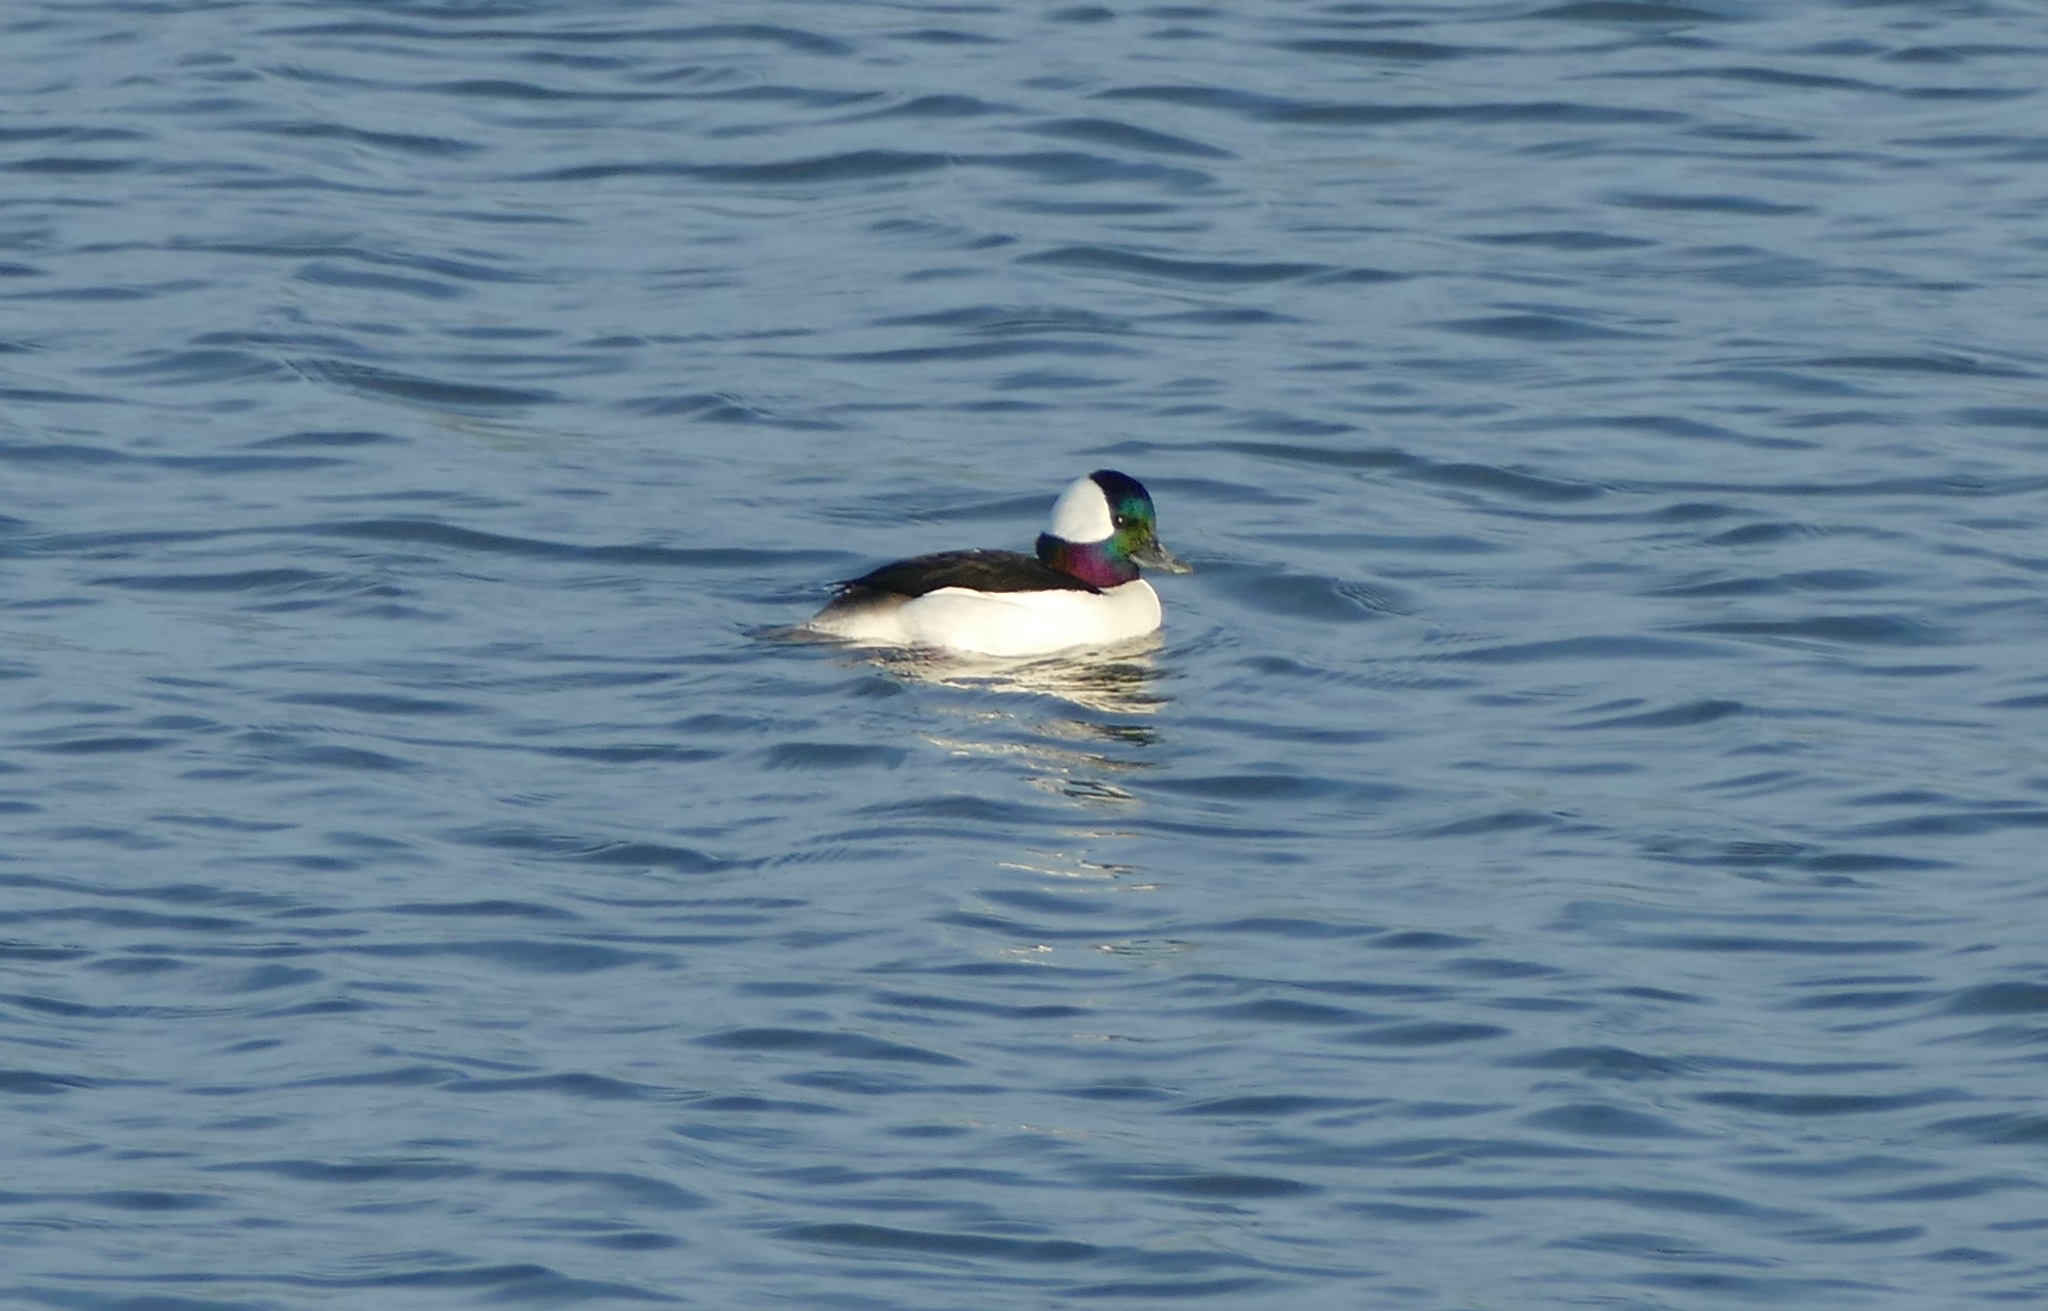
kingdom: Animalia
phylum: Chordata
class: Aves
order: Anseriformes
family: Anatidae
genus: Bucephala
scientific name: Bucephala albeola
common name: Bufflehead
